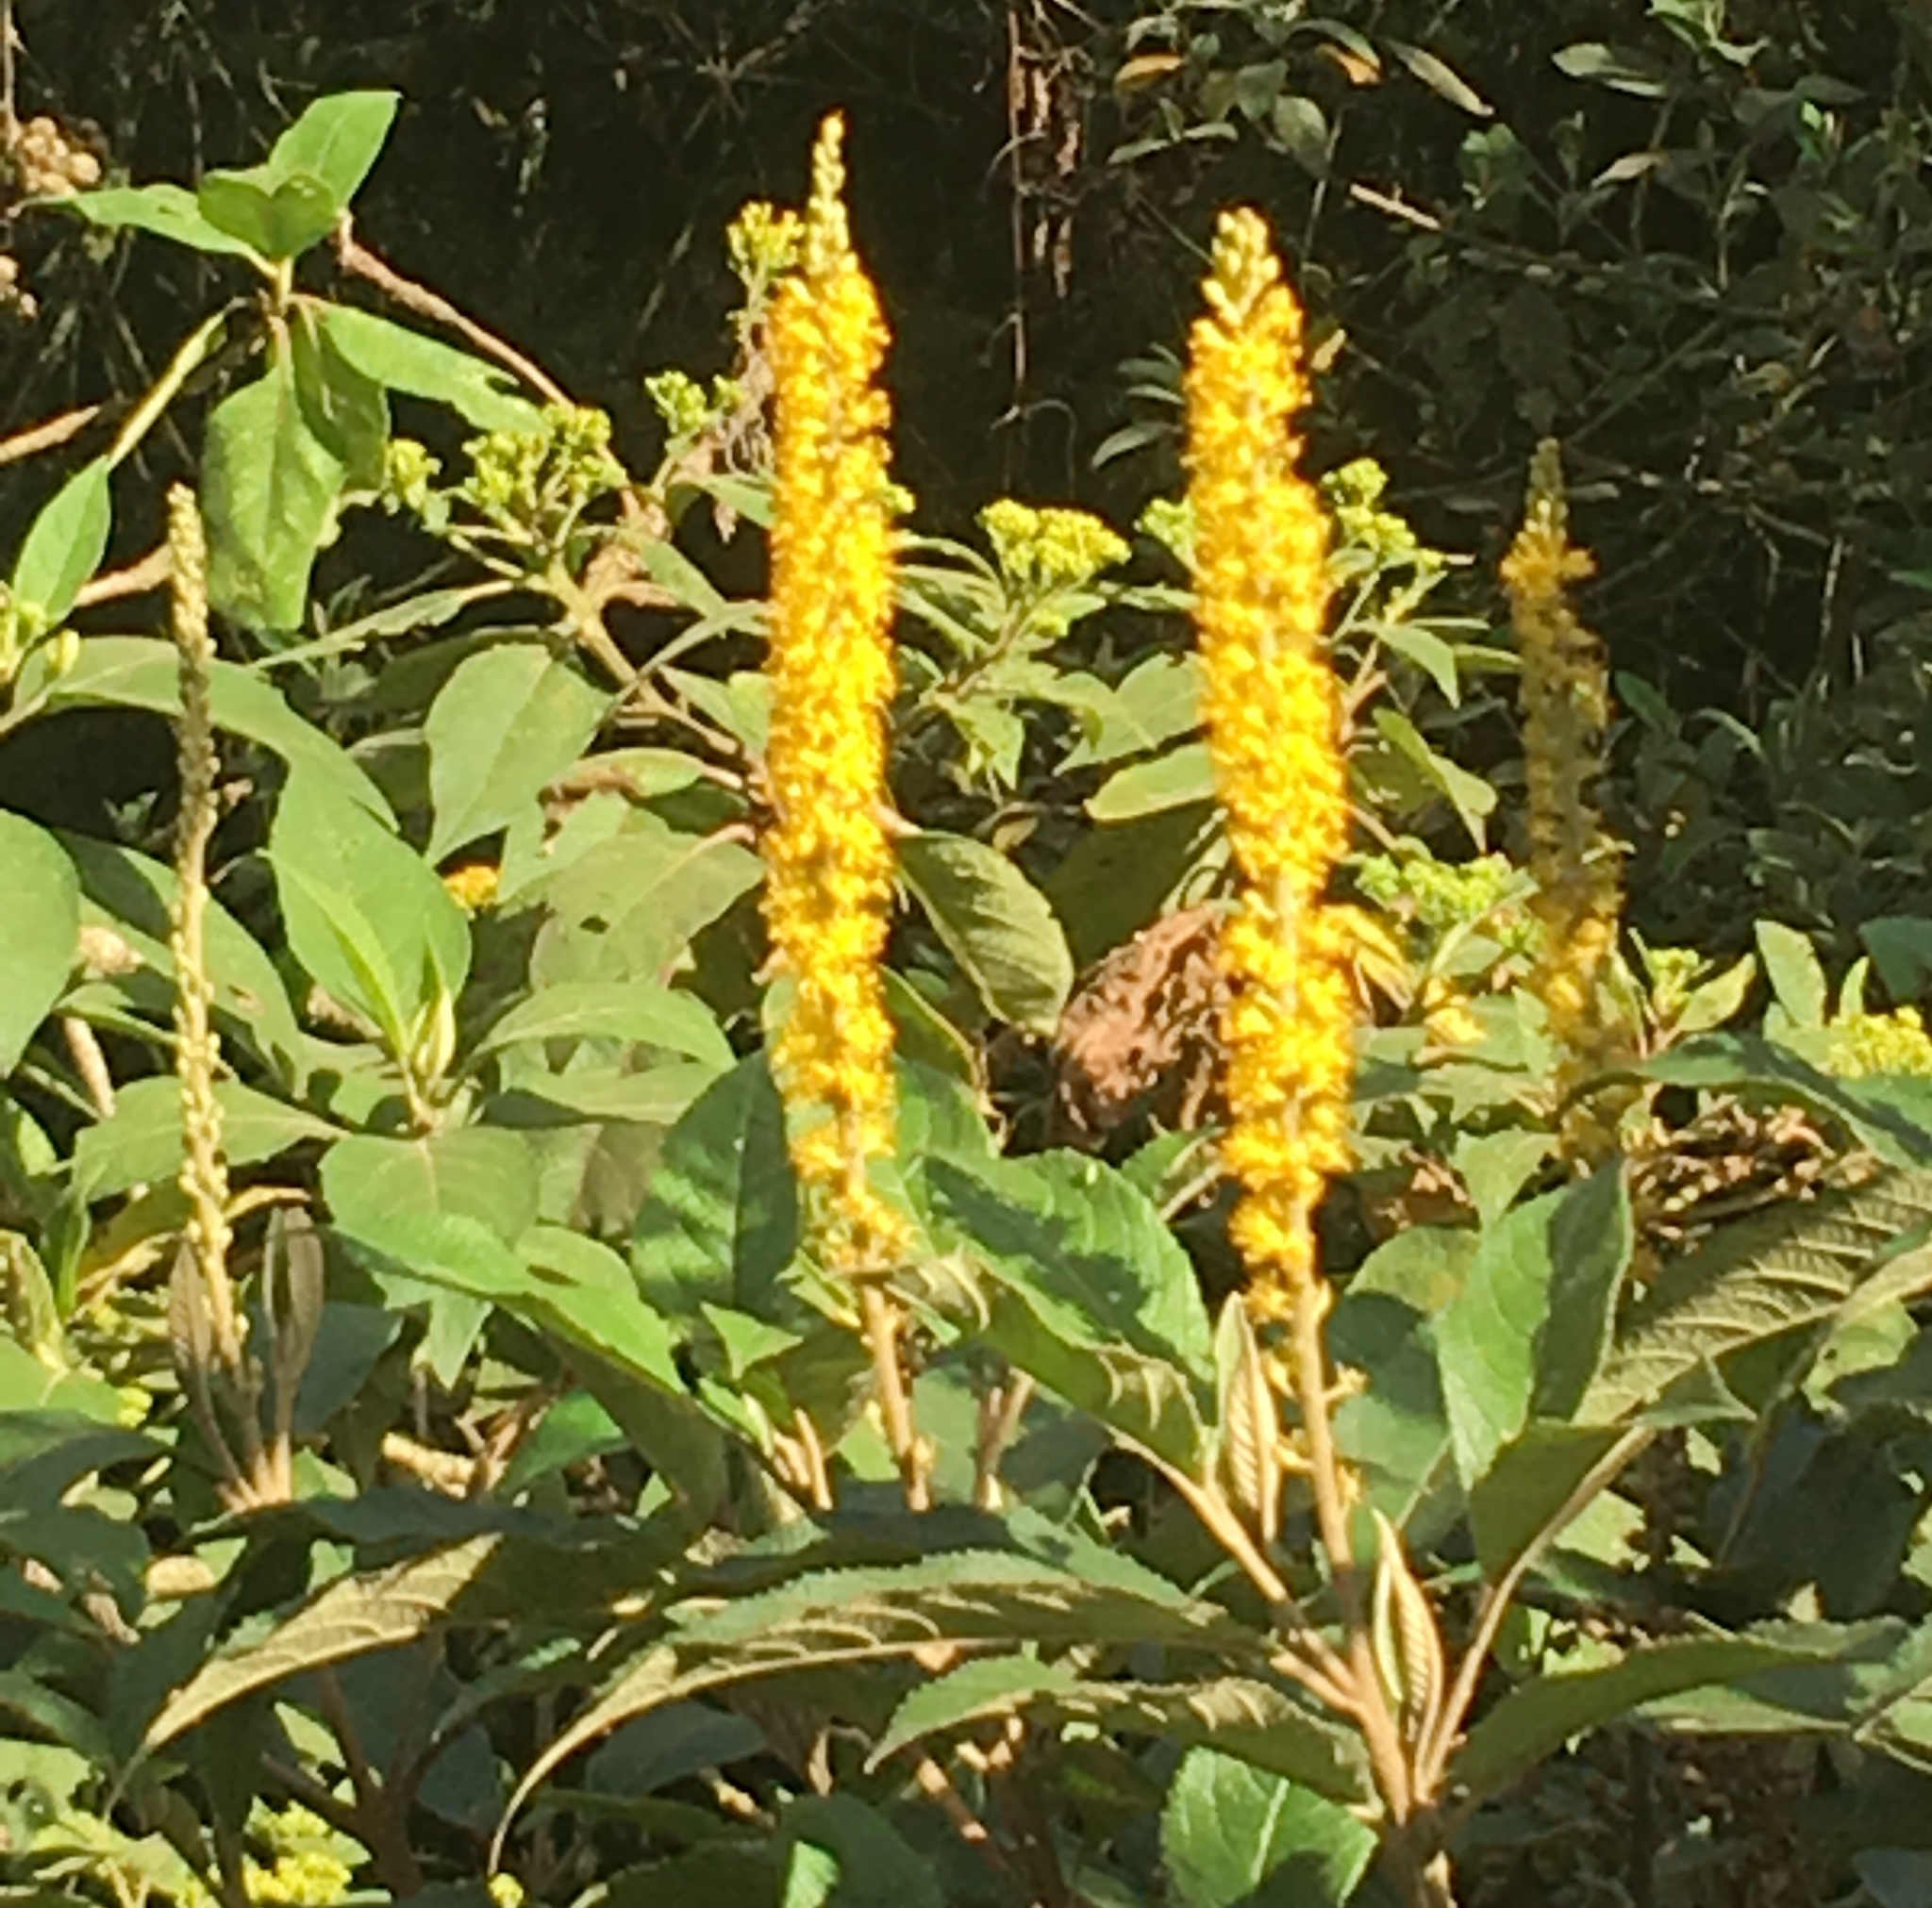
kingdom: Plantae
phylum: Tracheophyta
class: Magnoliopsida
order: Malpighiales
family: Salicaceae
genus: Abatia
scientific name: Abatia parviflora
